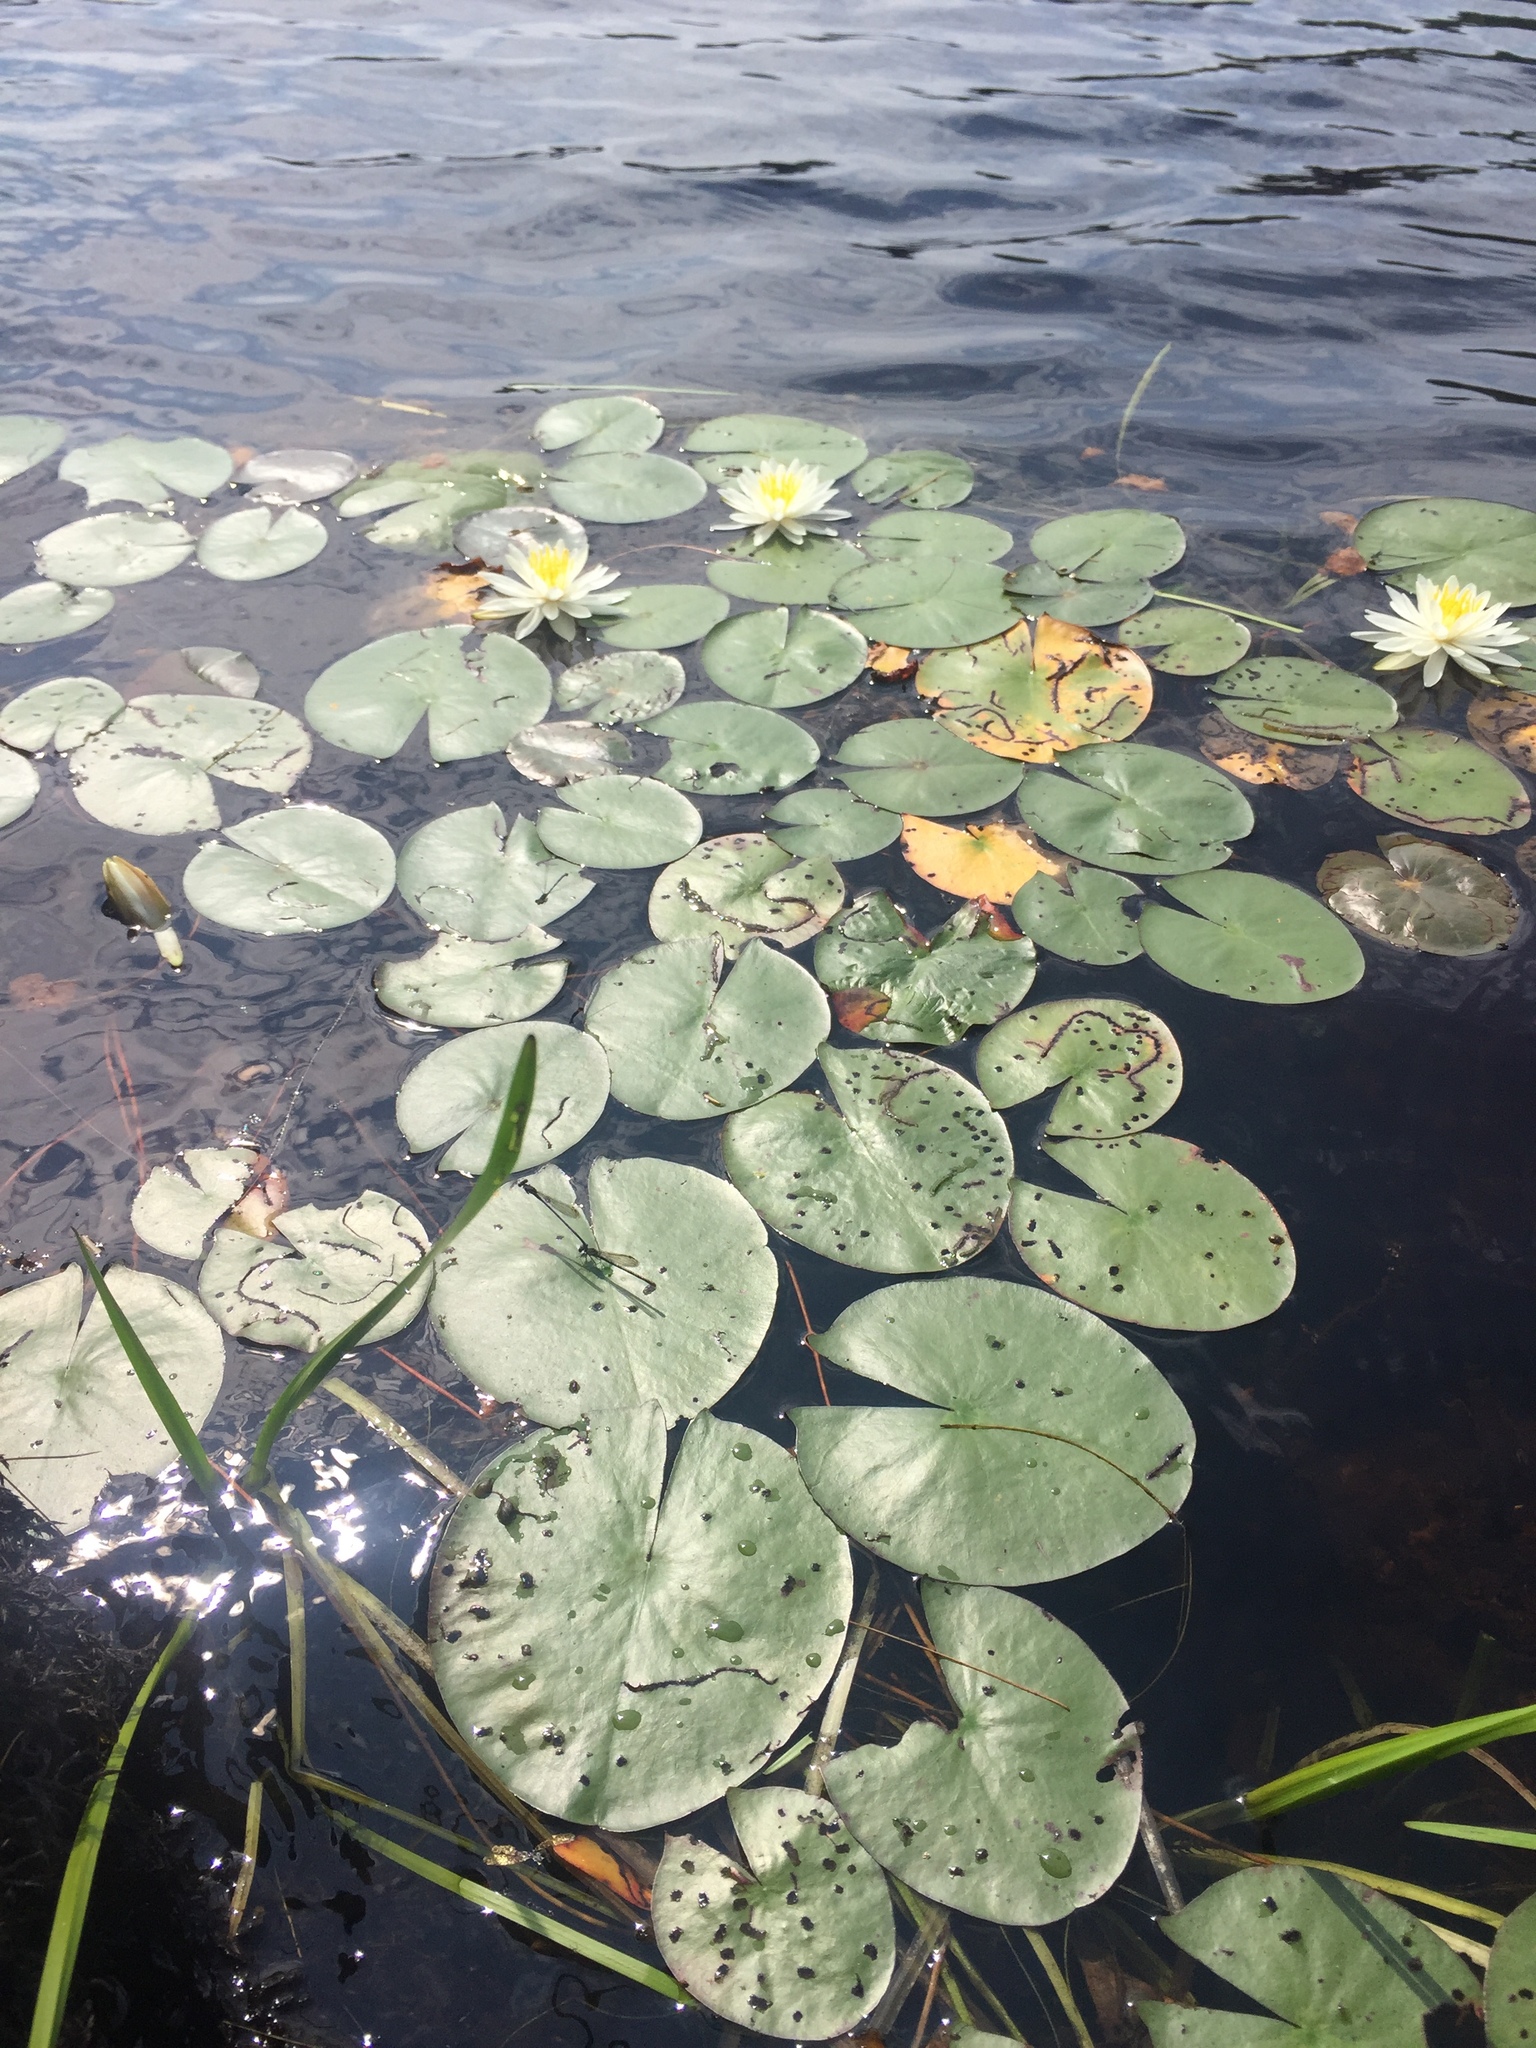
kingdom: Plantae
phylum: Tracheophyta
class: Magnoliopsida
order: Nymphaeales
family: Nymphaeaceae
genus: Nymphaea
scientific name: Nymphaea odorata
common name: Fragrant water-lily
